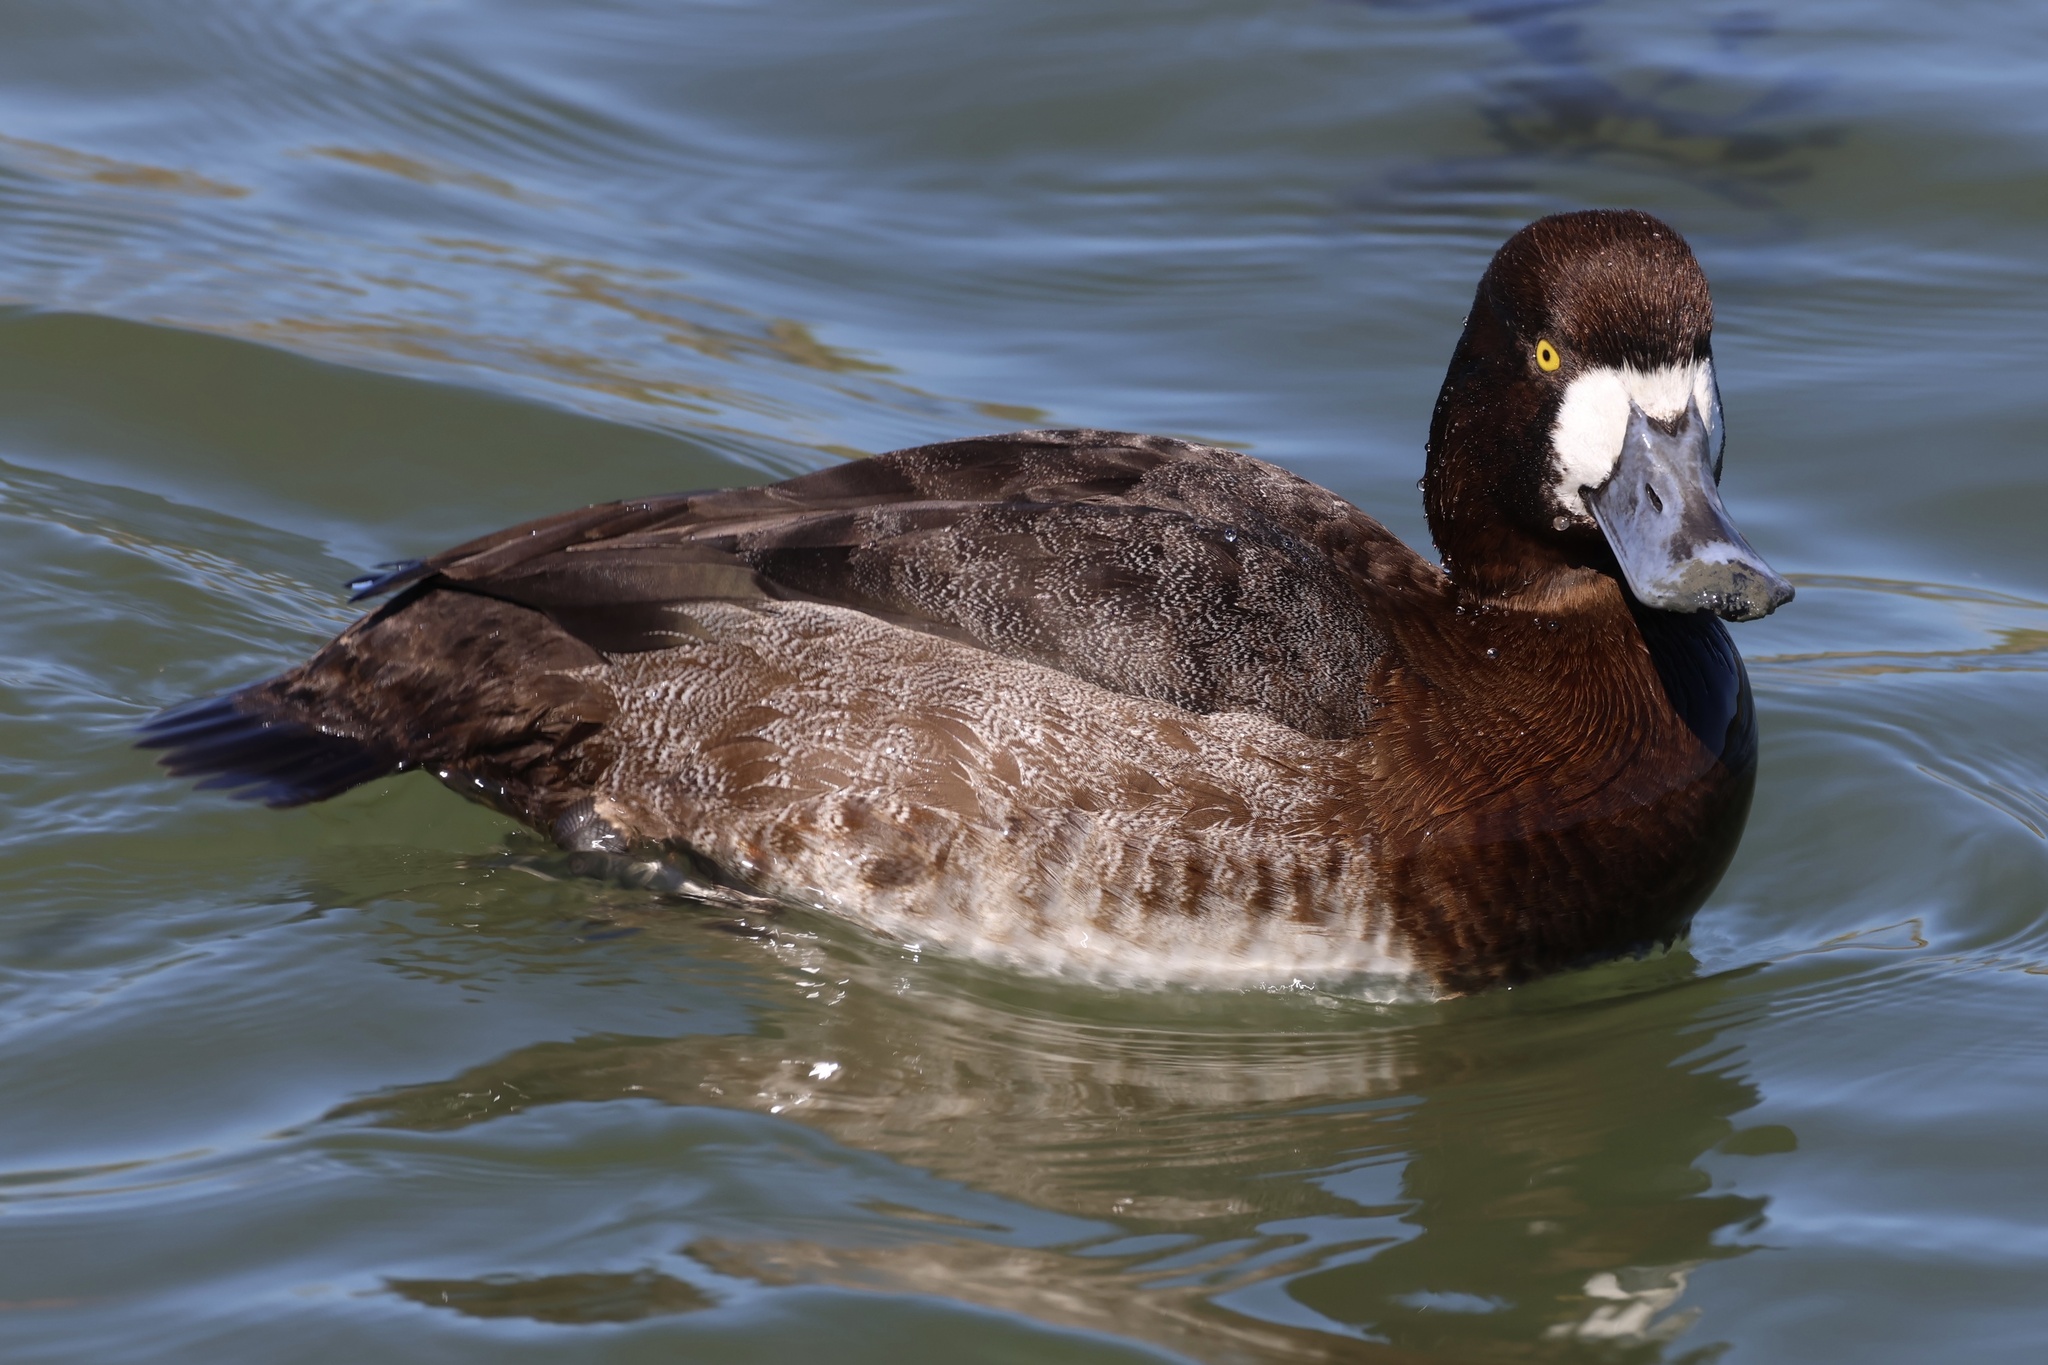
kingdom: Animalia
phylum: Chordata
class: Aves
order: Anseriformes
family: Anatidae
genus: Aythya
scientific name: Aythya affinis
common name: Lesser scaup
